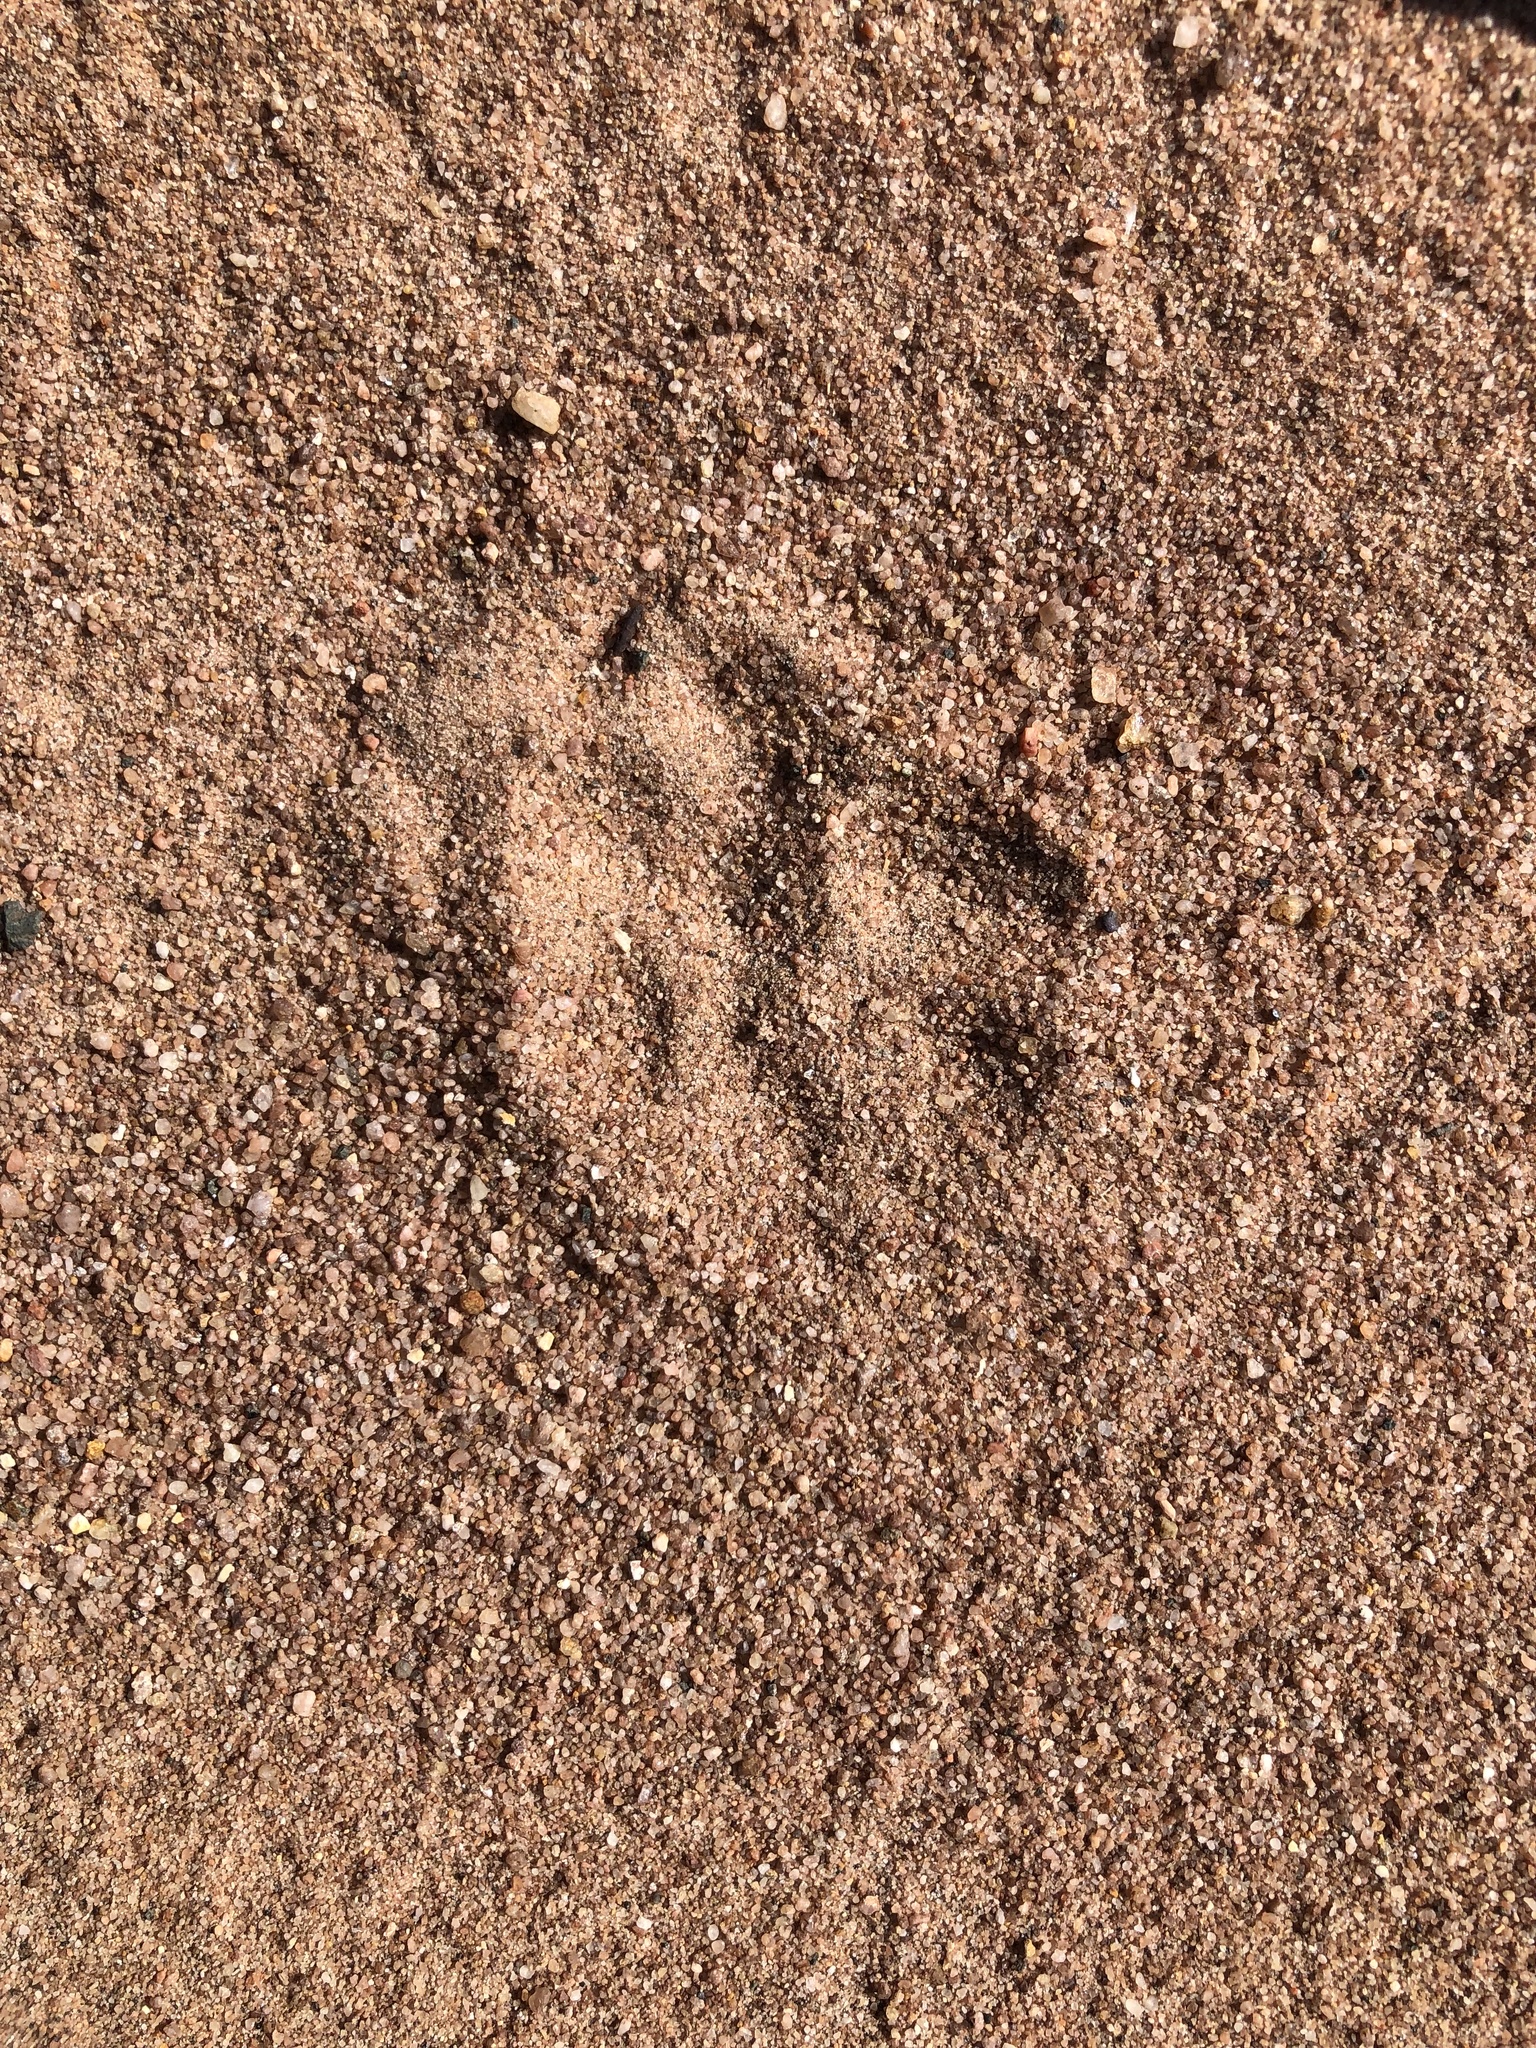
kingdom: Animalia
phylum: Chordata
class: Mammalia
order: Carnivora
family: Herpestidae
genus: Atilax
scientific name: Atilax paludinosus
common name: Marsh mongoose
